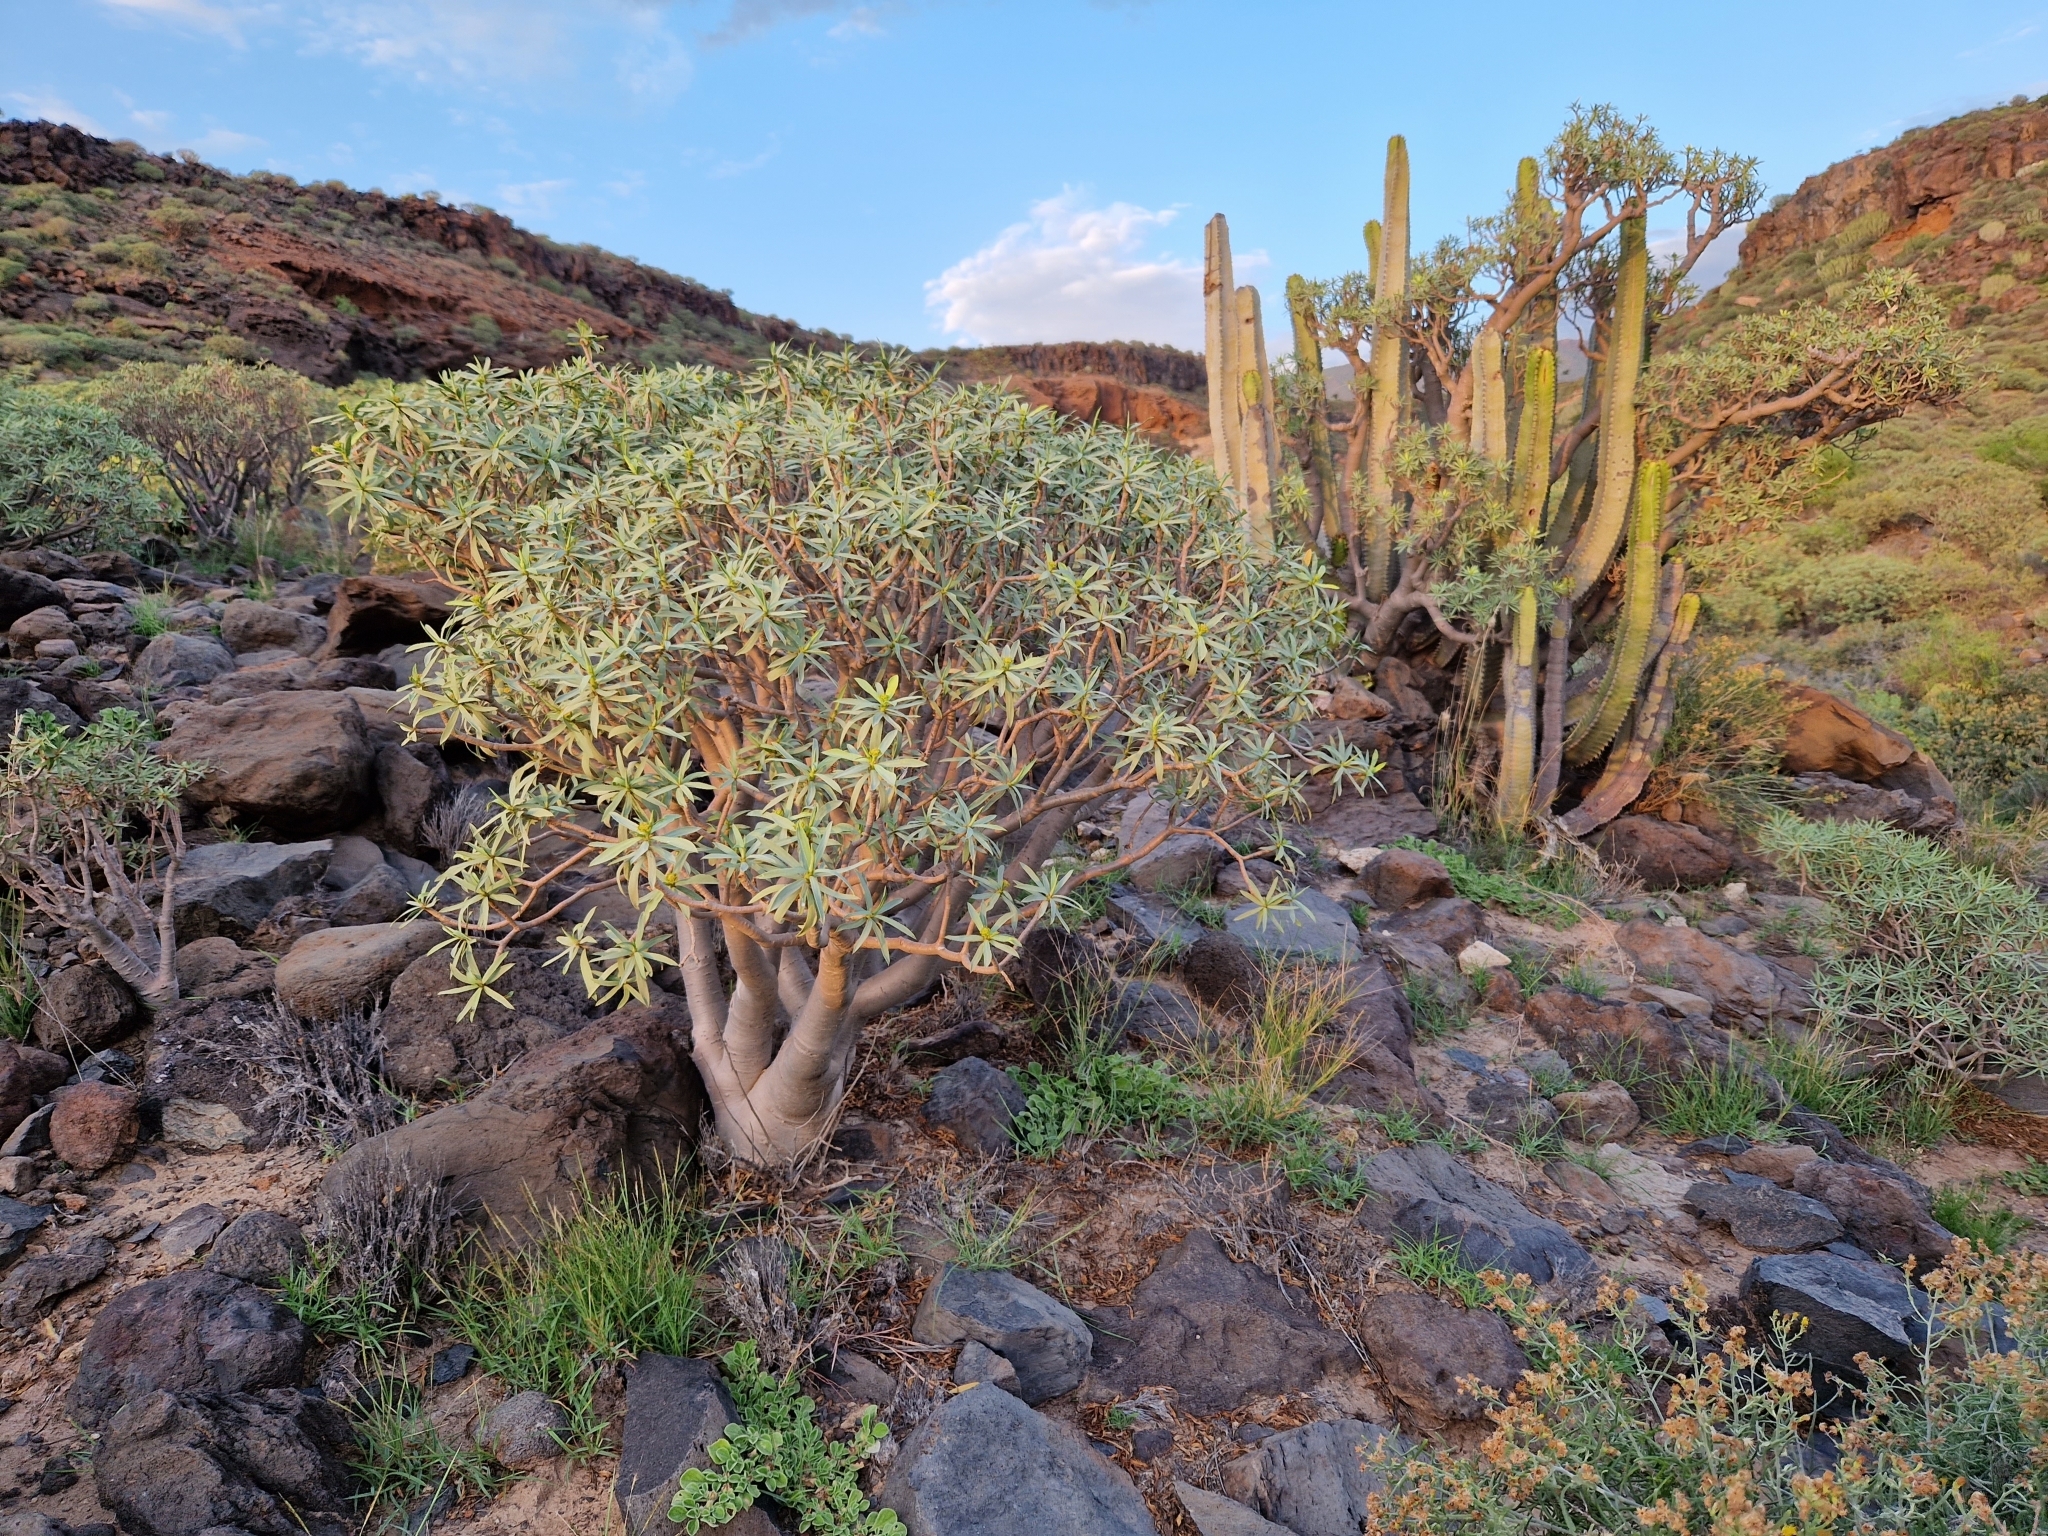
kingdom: Plantae
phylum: Tracheophyta
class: Magnoliopsida
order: Malpighiales
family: Euphorbiaceae
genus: Euphorbia
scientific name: Euphorbia balsamifera
